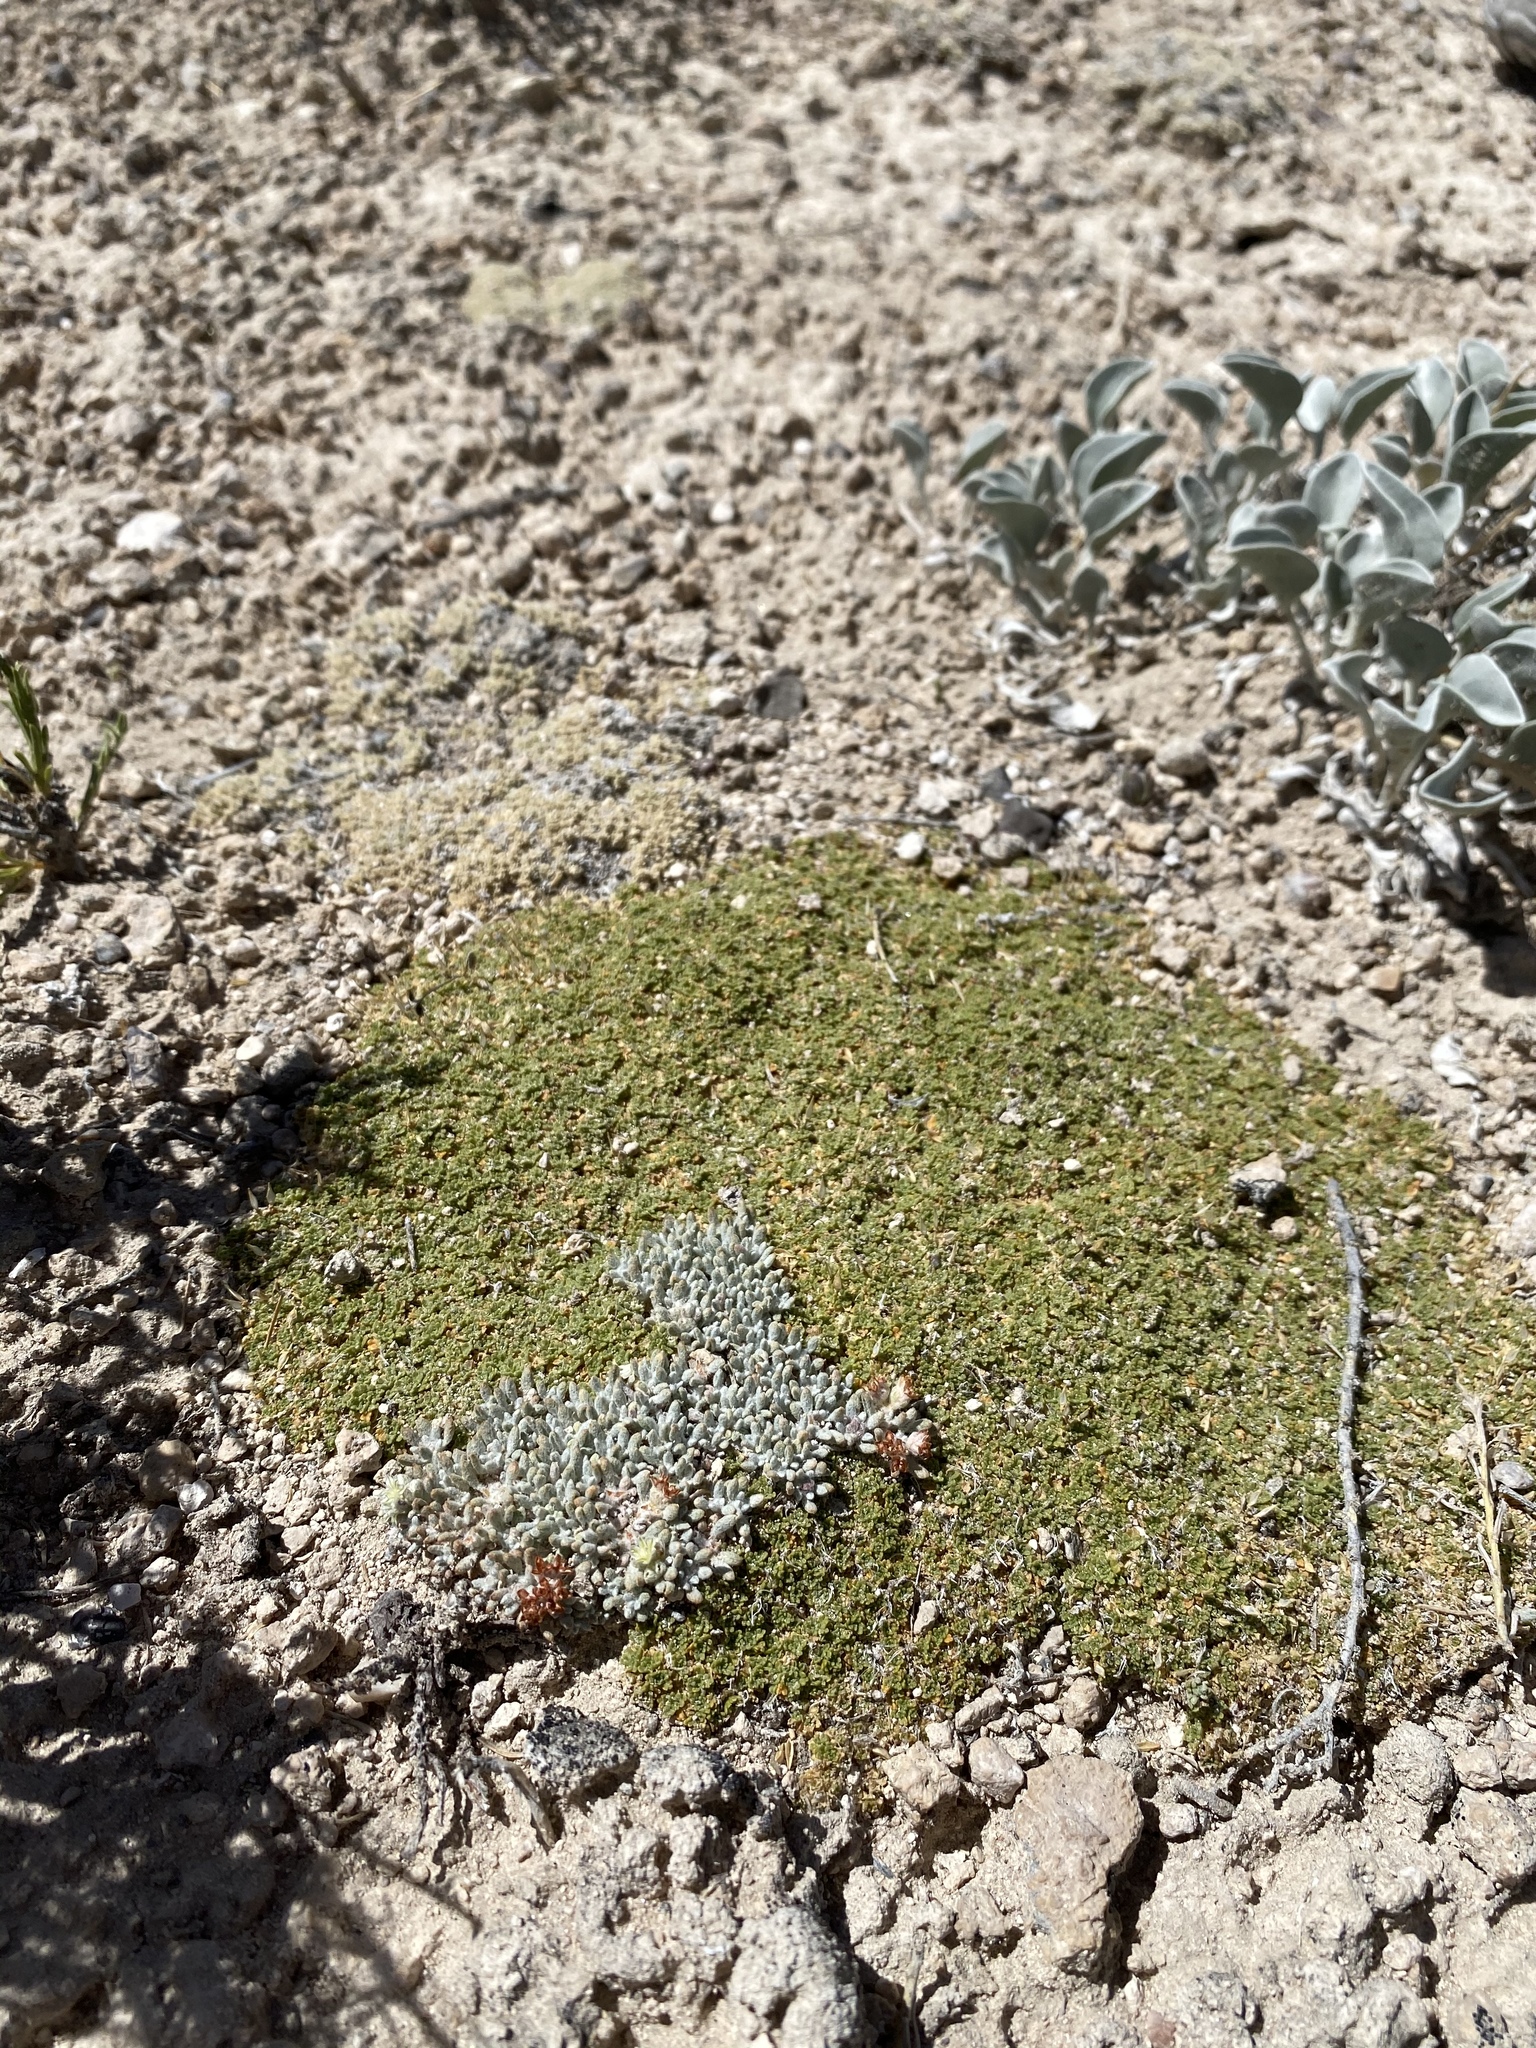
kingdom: Plantae
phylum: Tracheophyta
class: Magnoliopsida
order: Brassicales
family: Brassicaceae
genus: Lepidium
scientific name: Lepidium nanum
